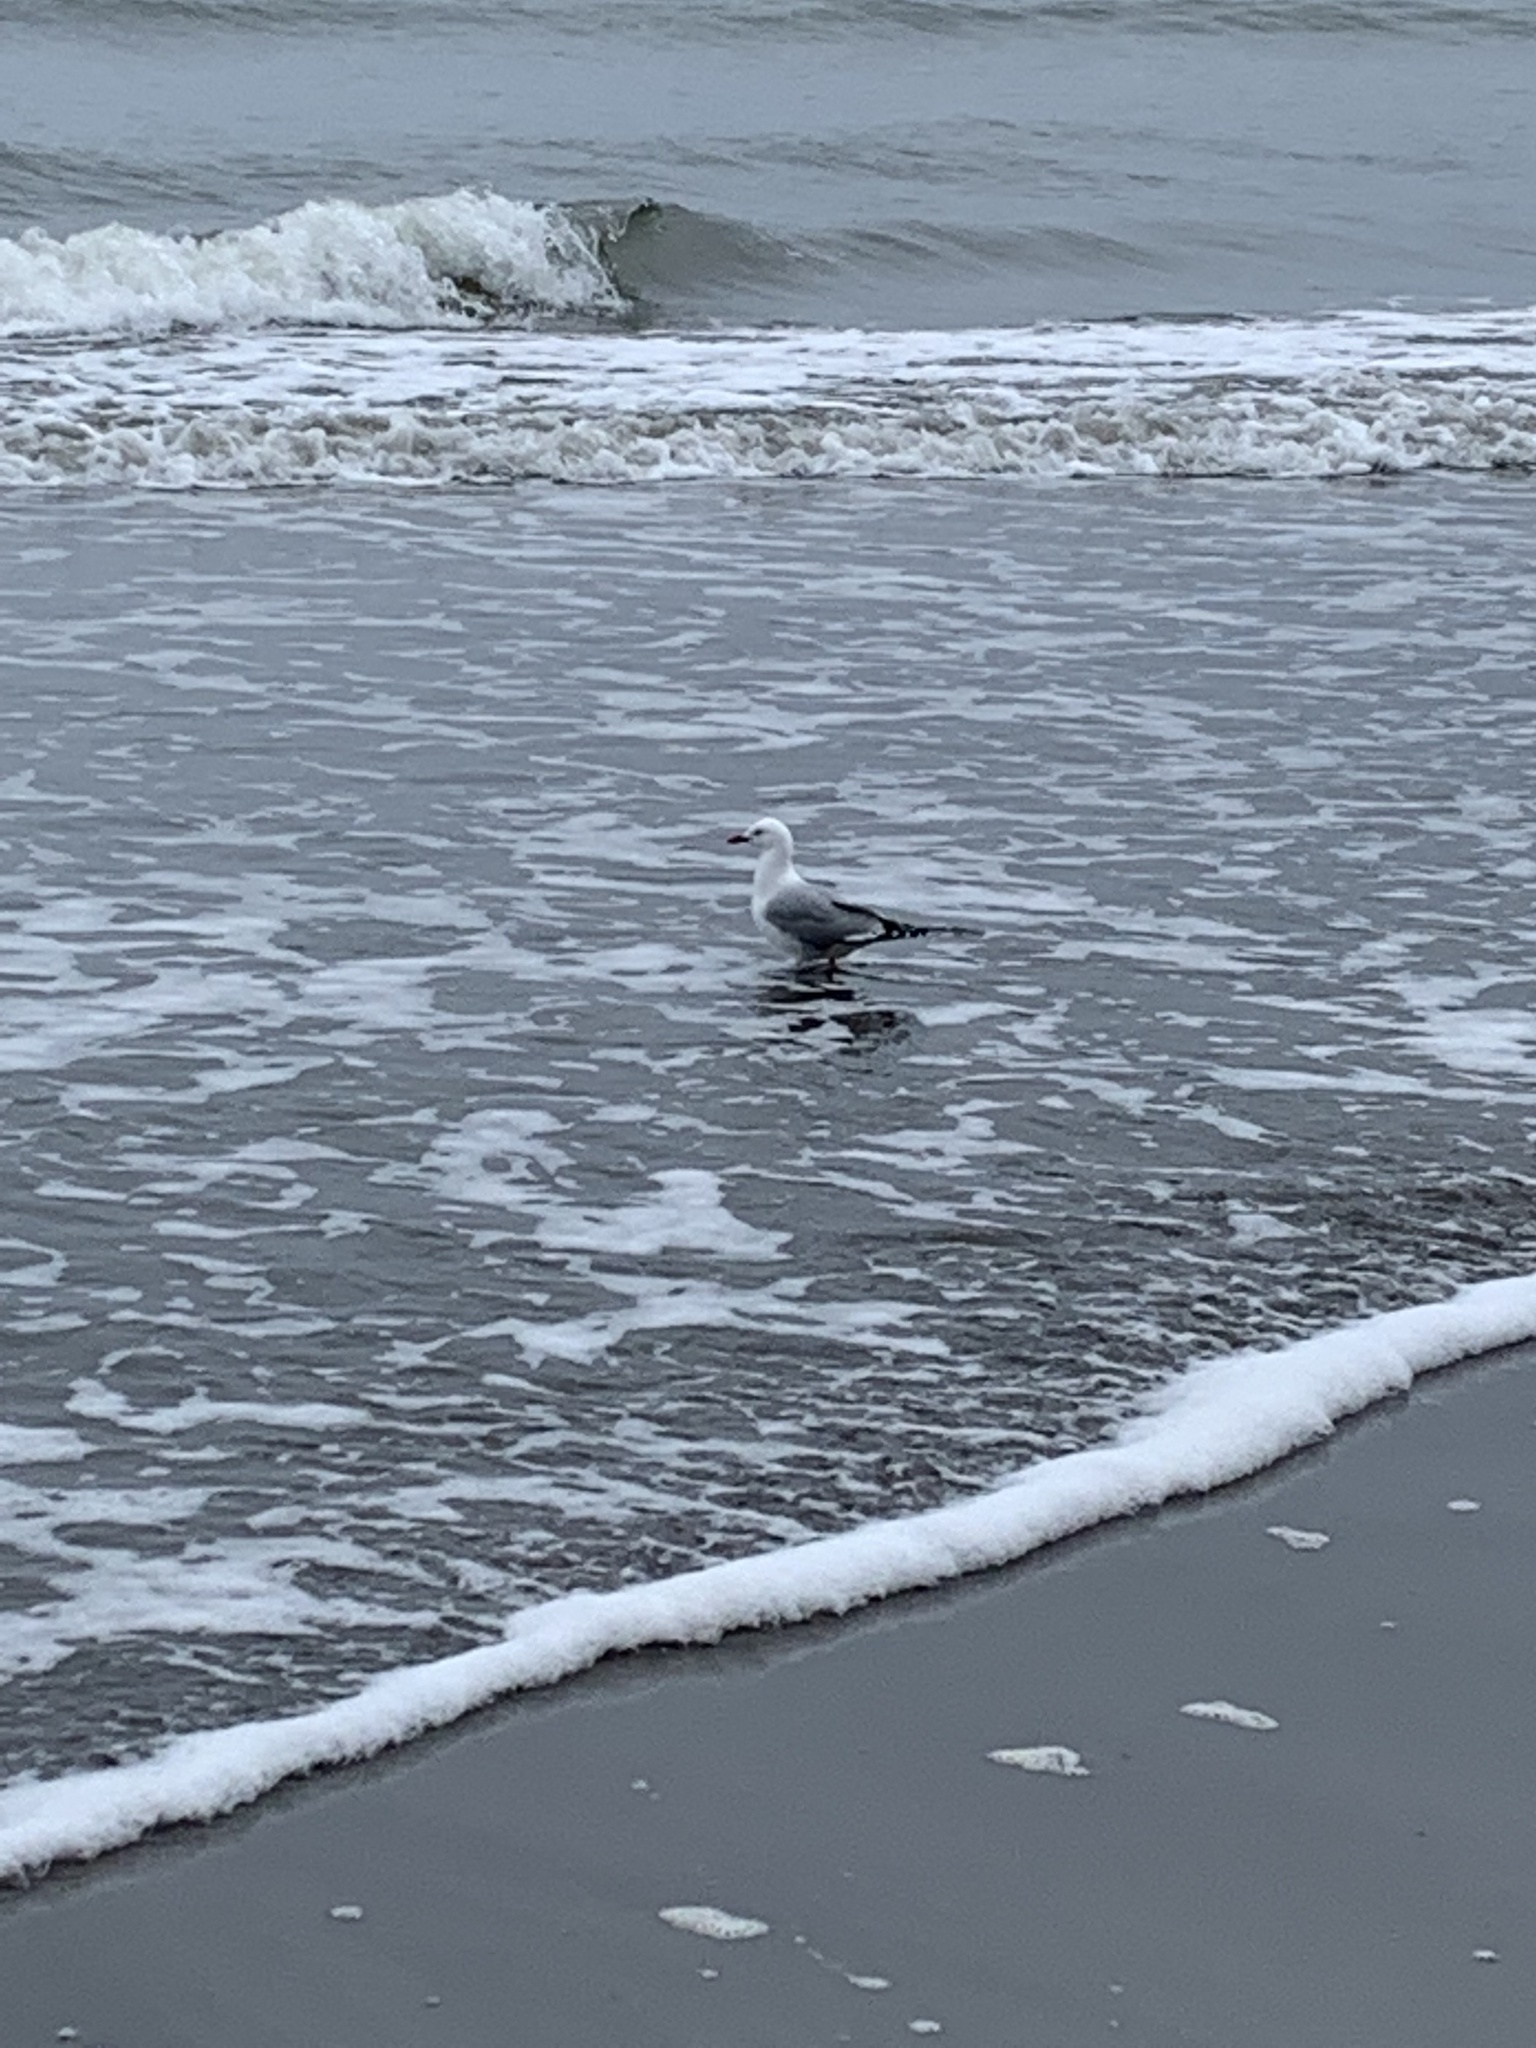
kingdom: Animalia
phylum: Chordata
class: Aves
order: Charadriiformes
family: Laridae
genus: Chroicocephalus
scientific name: Chroicocephalus novaehollandiae
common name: Silver gull
